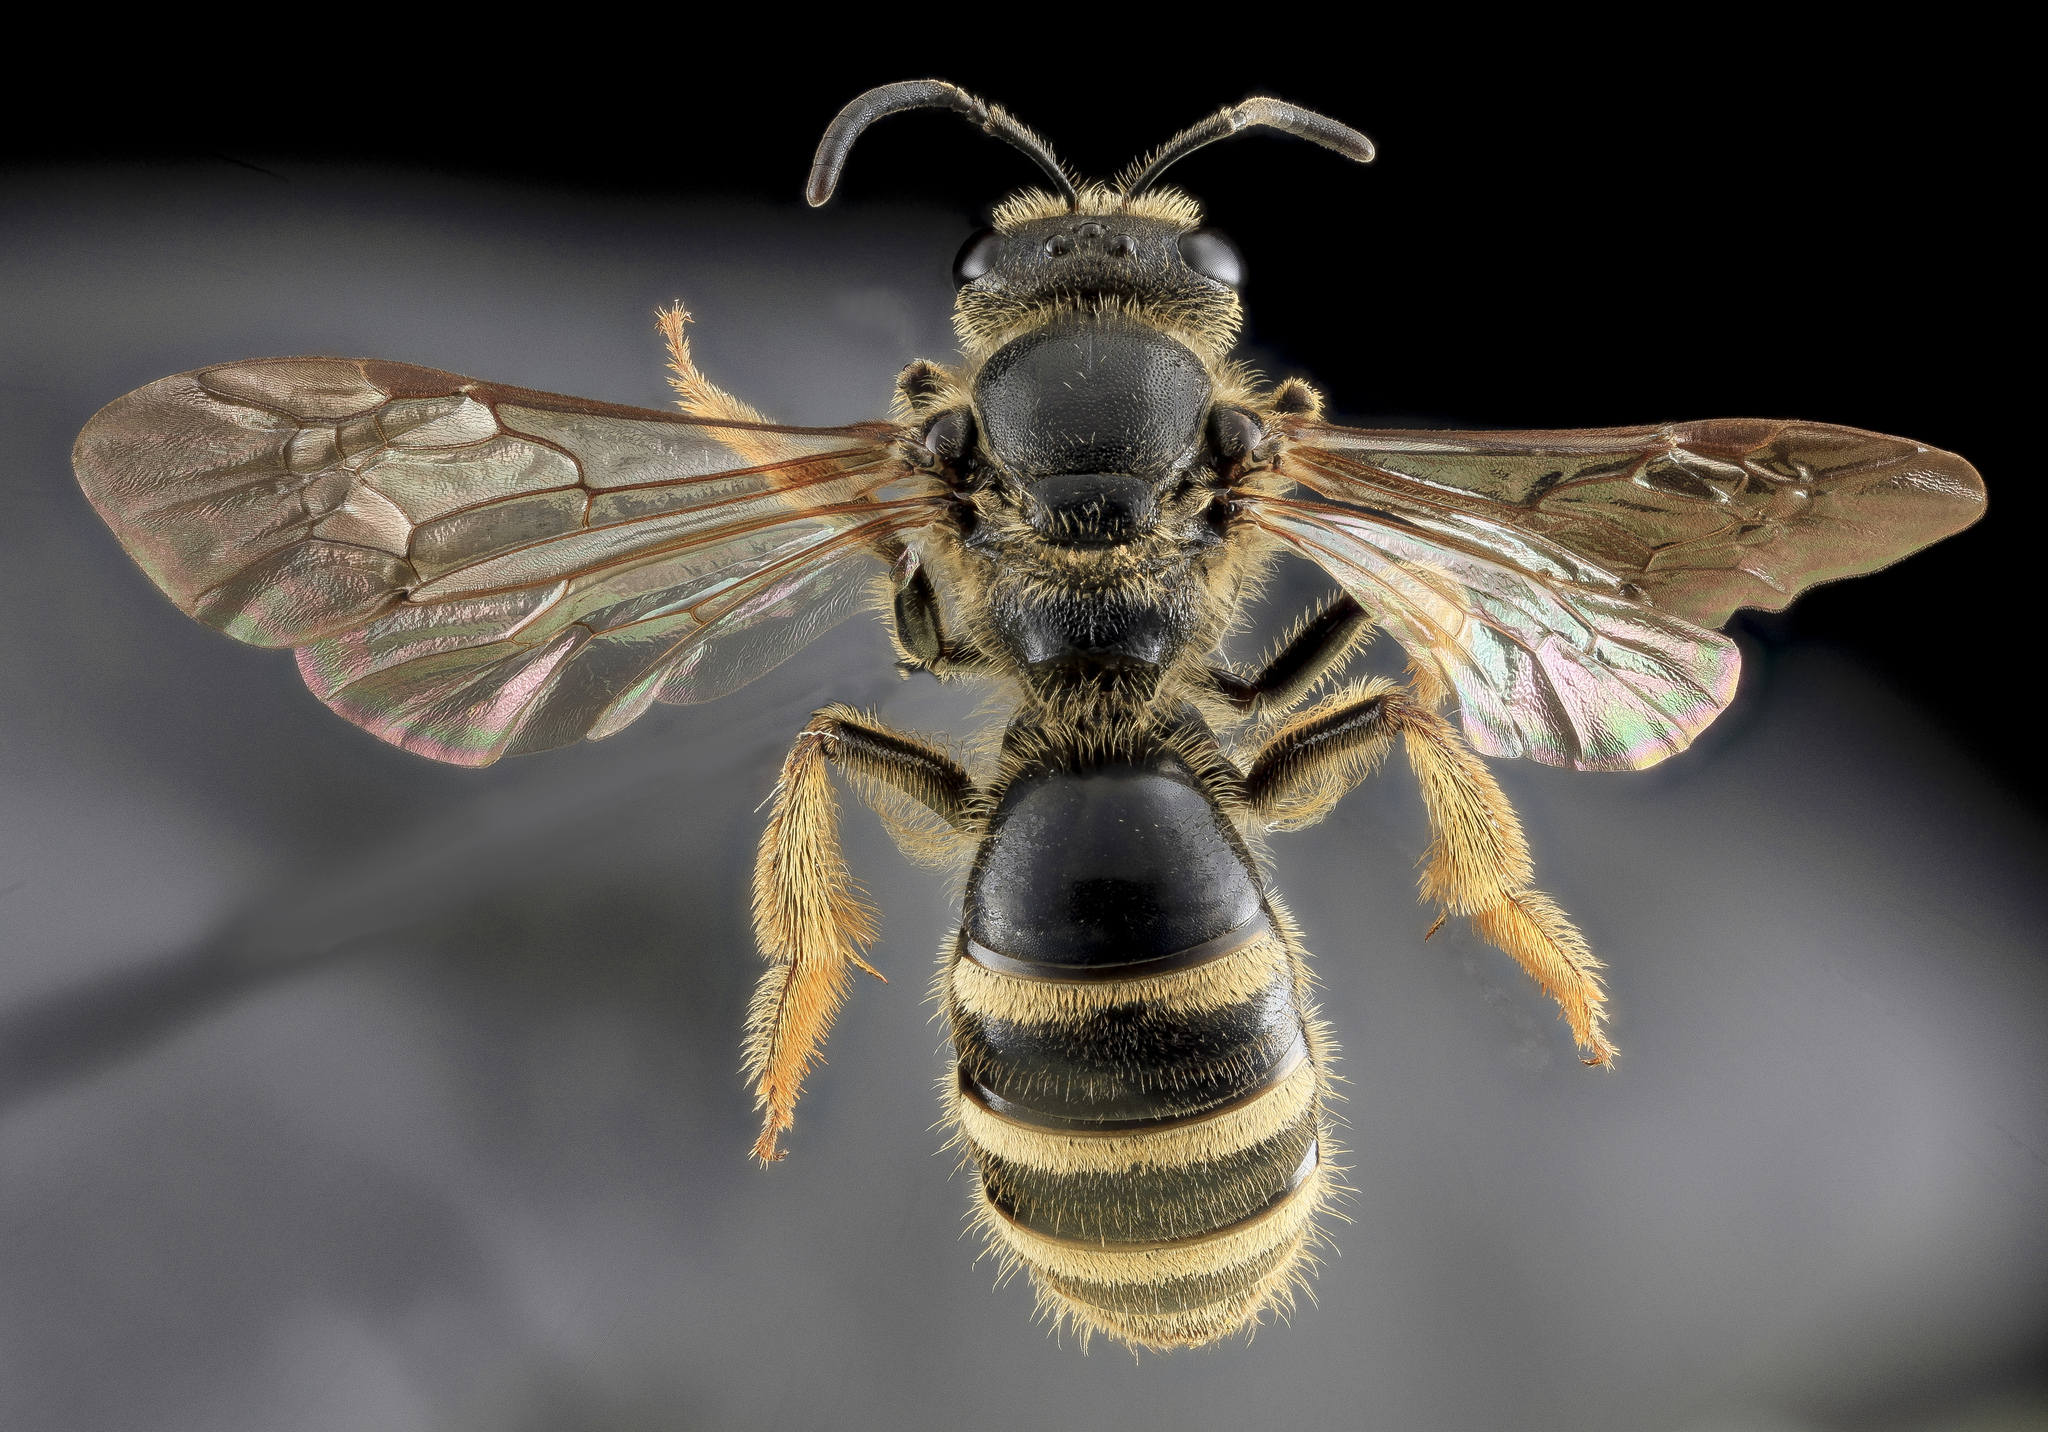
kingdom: Animalia
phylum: Arthropoda
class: Insecta
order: Hymenoptera
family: Halictidae
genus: Lasioglossum
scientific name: Lasioglossum fuscipenne
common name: Brown-winged sweat bee
